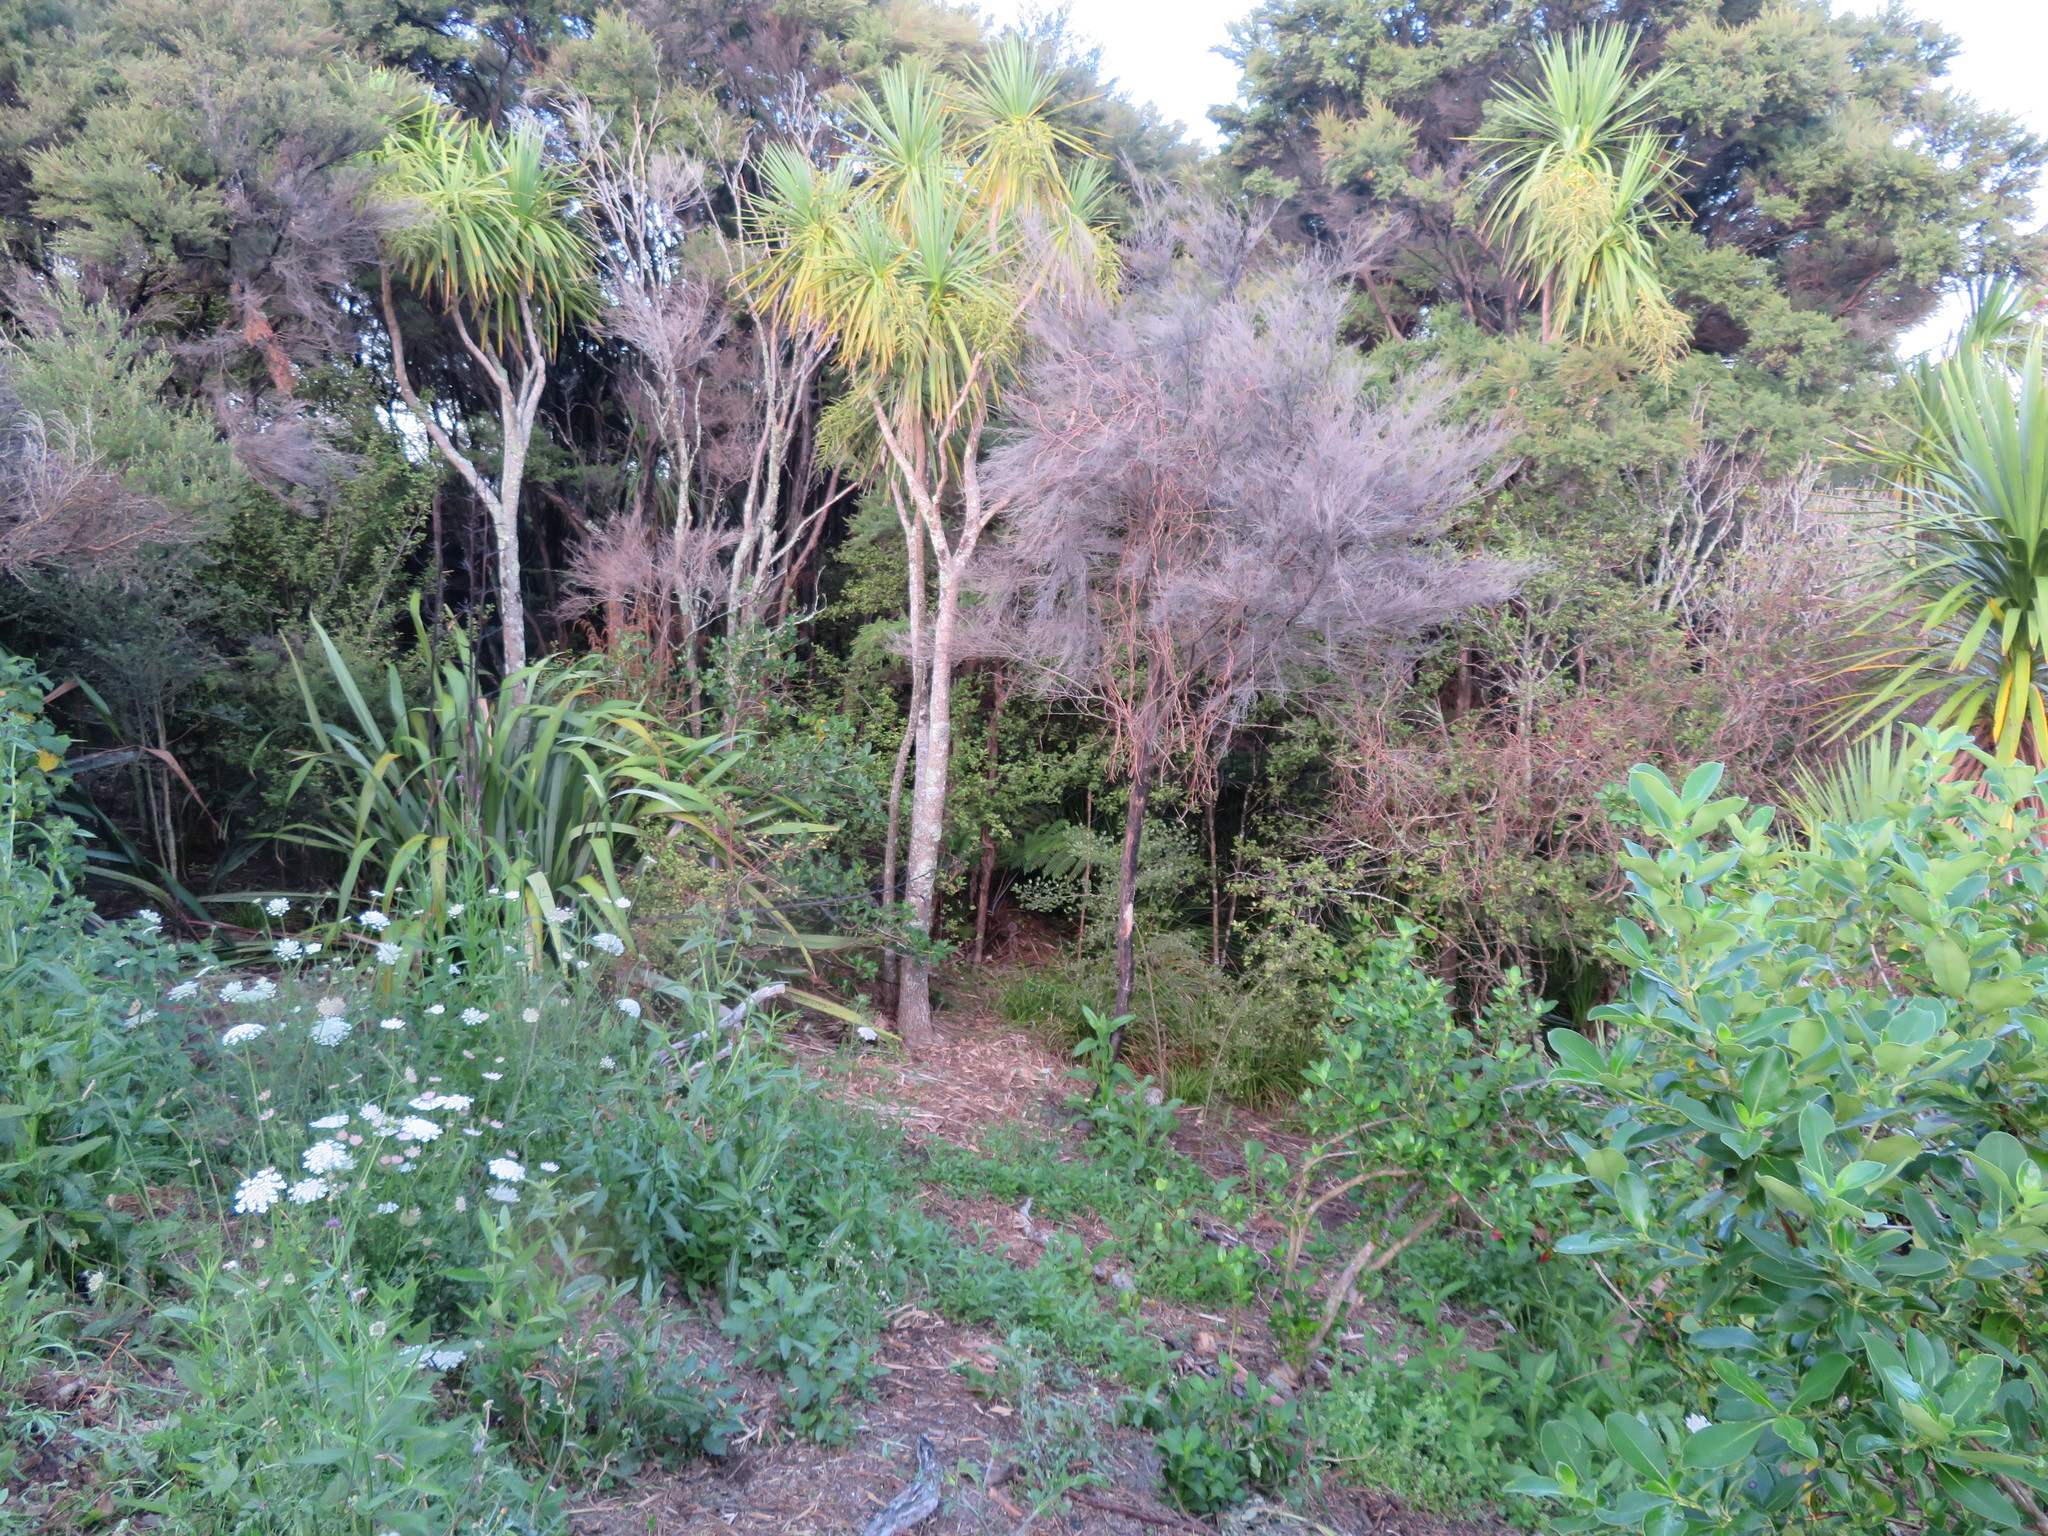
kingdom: Plantae
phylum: Tracheophyta
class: Magnoliopsida
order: Asterales
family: Asteraceae
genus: Helminthotheca
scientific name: Helminthotheca echioides
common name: Ox-tongue
